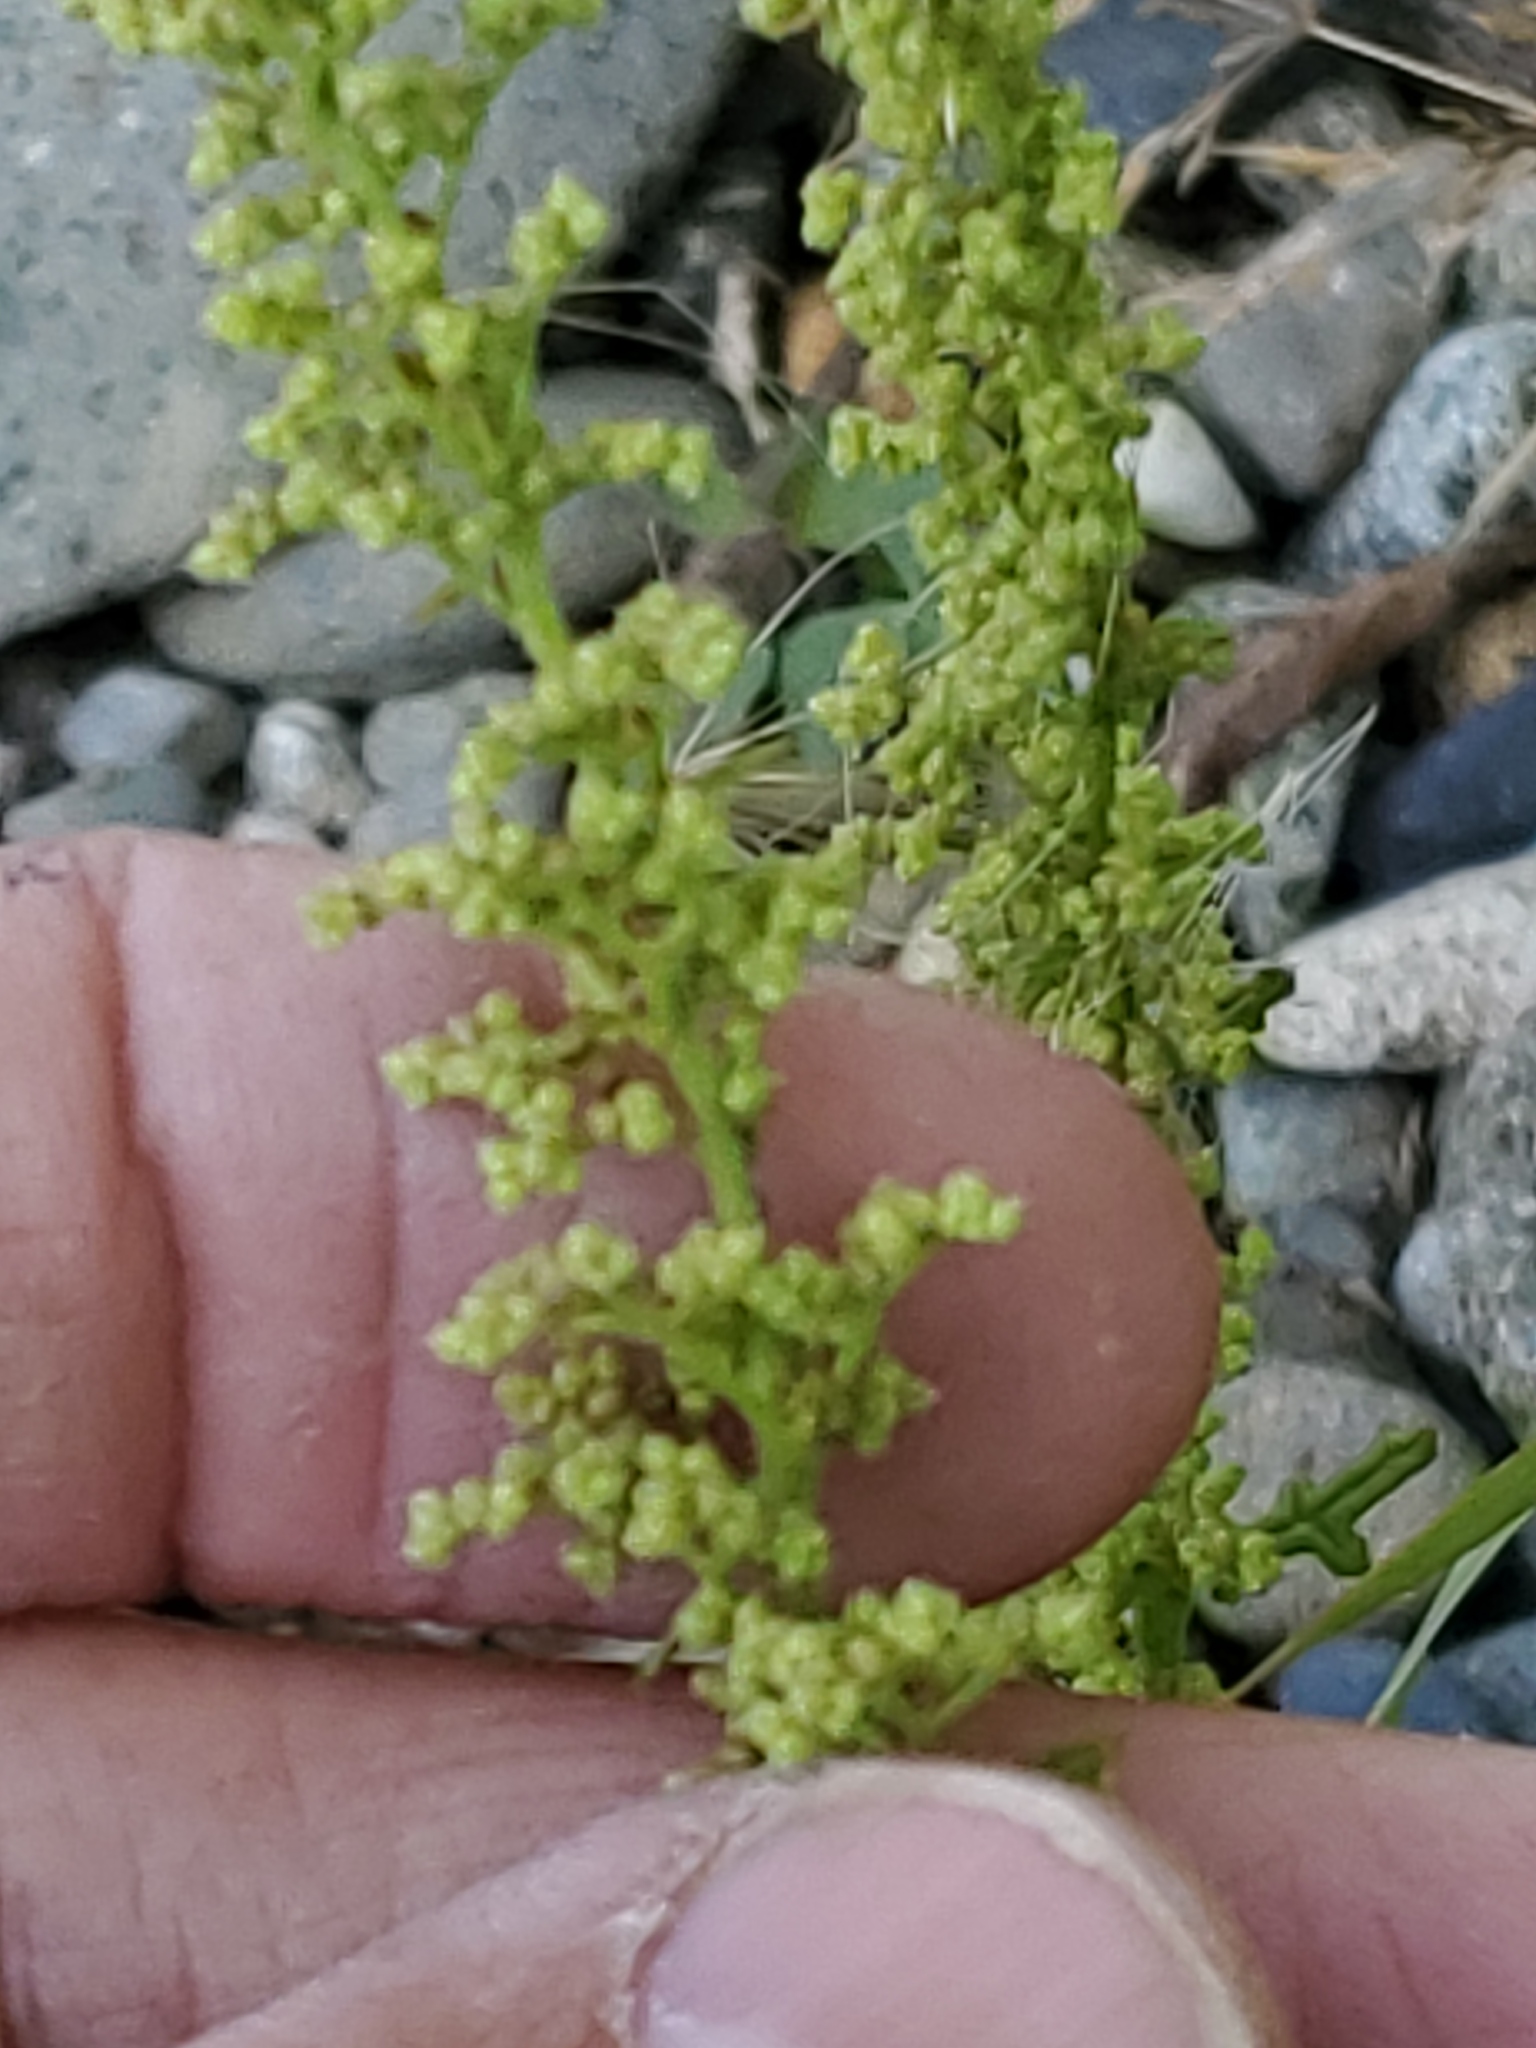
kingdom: Plantae
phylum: Tracheophyta
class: Magnoliopsida
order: Caryophyllales
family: Amaranthaceae
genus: Dysphania
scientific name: Dysphania botrys
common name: Feather-geranium
